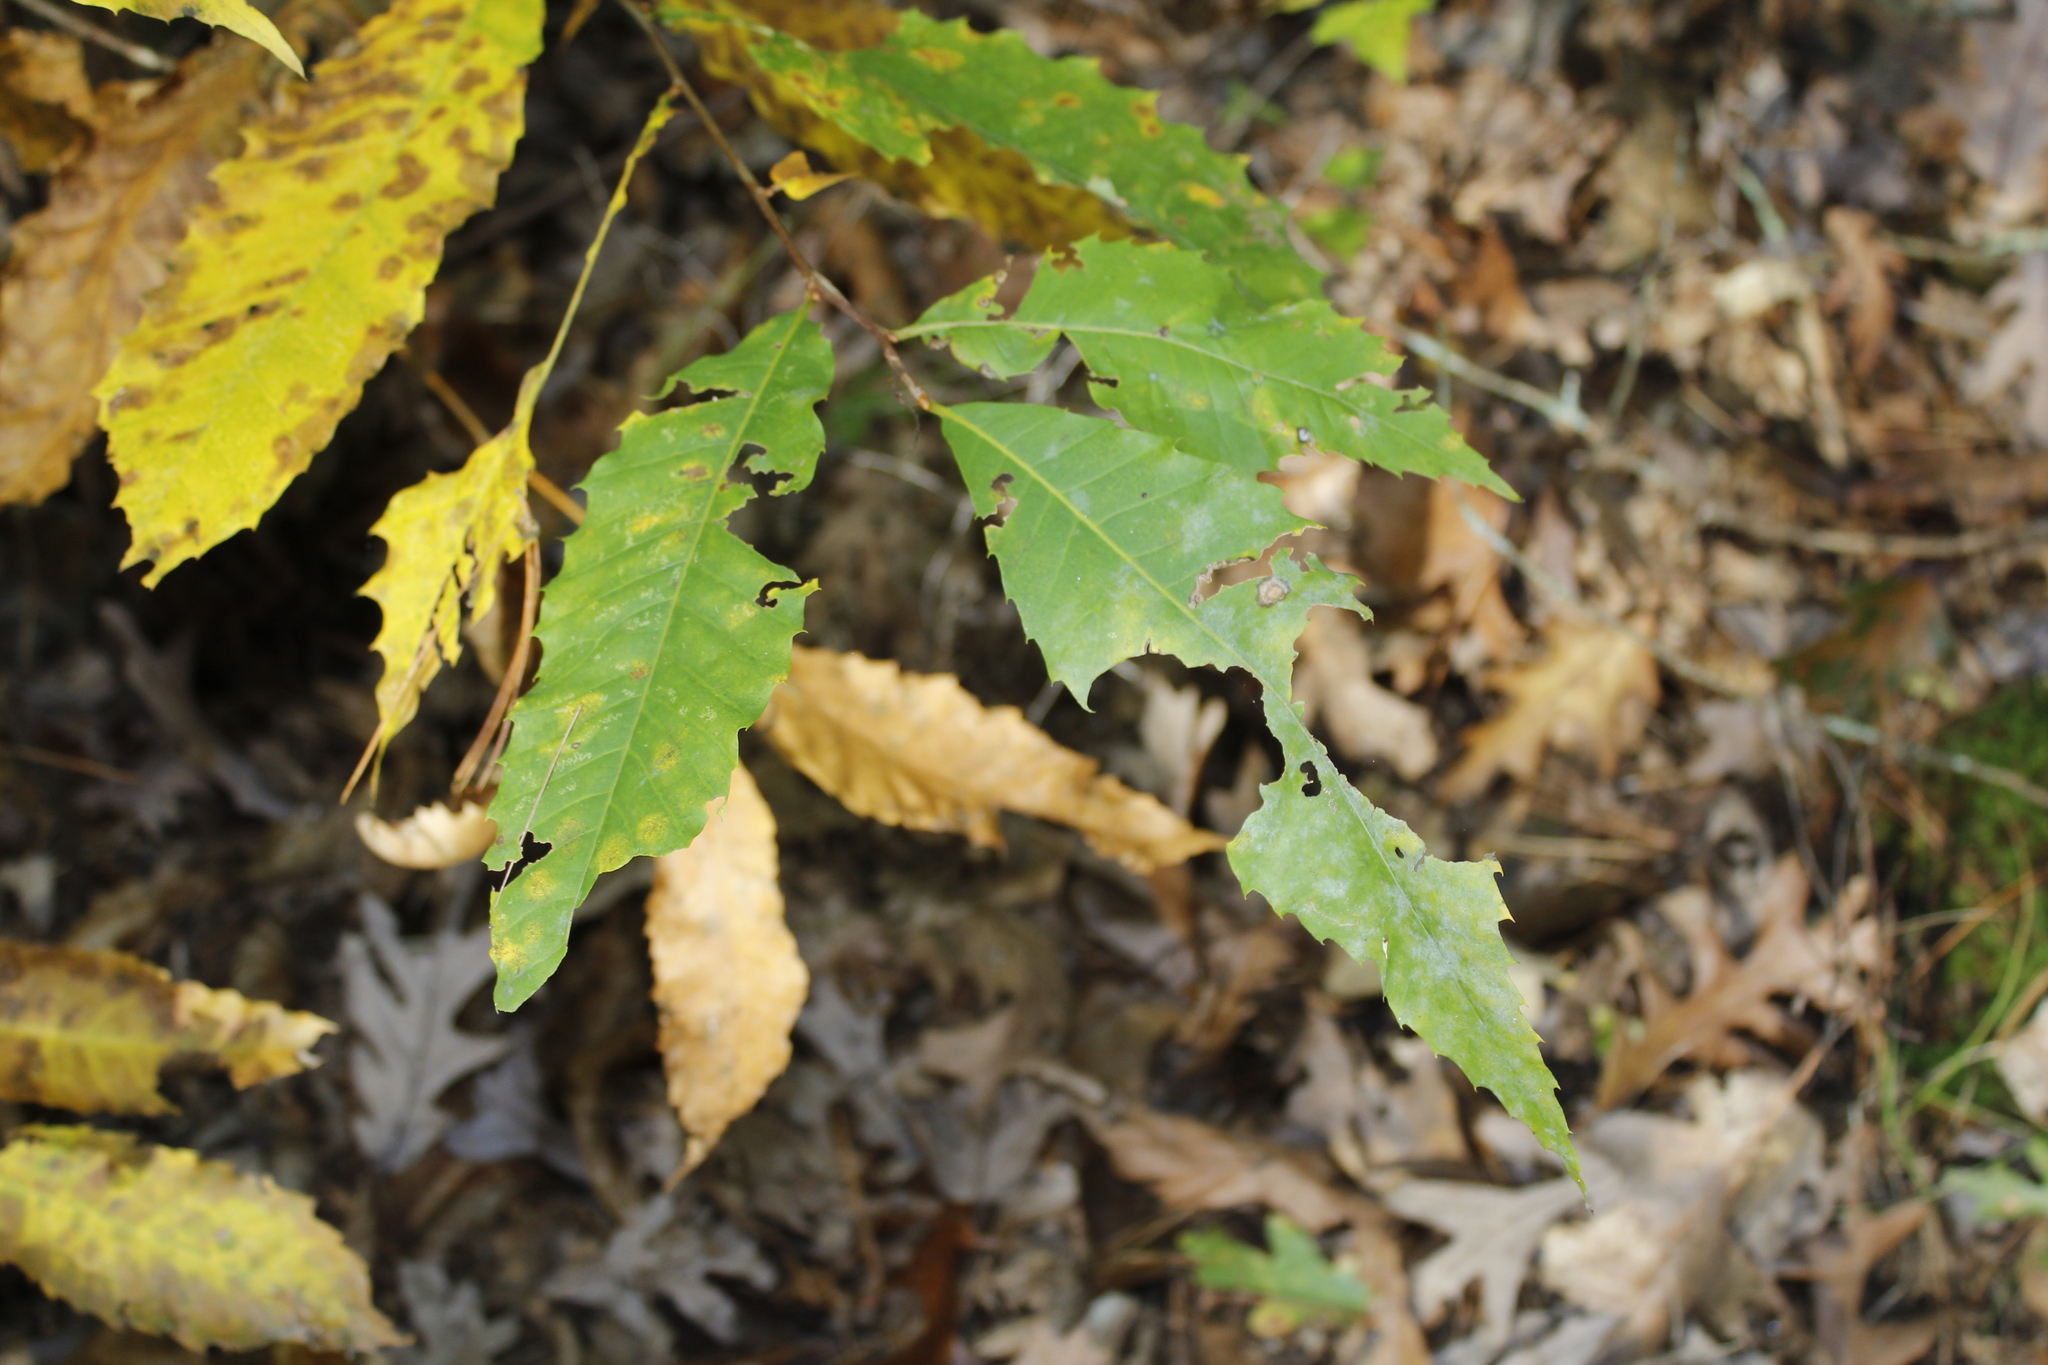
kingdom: Plantae
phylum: Tracheophyta
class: Magnoliopsida
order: Fagales
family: Fagaceae
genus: Castanea
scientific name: Castanea dentata
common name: American chestnut
